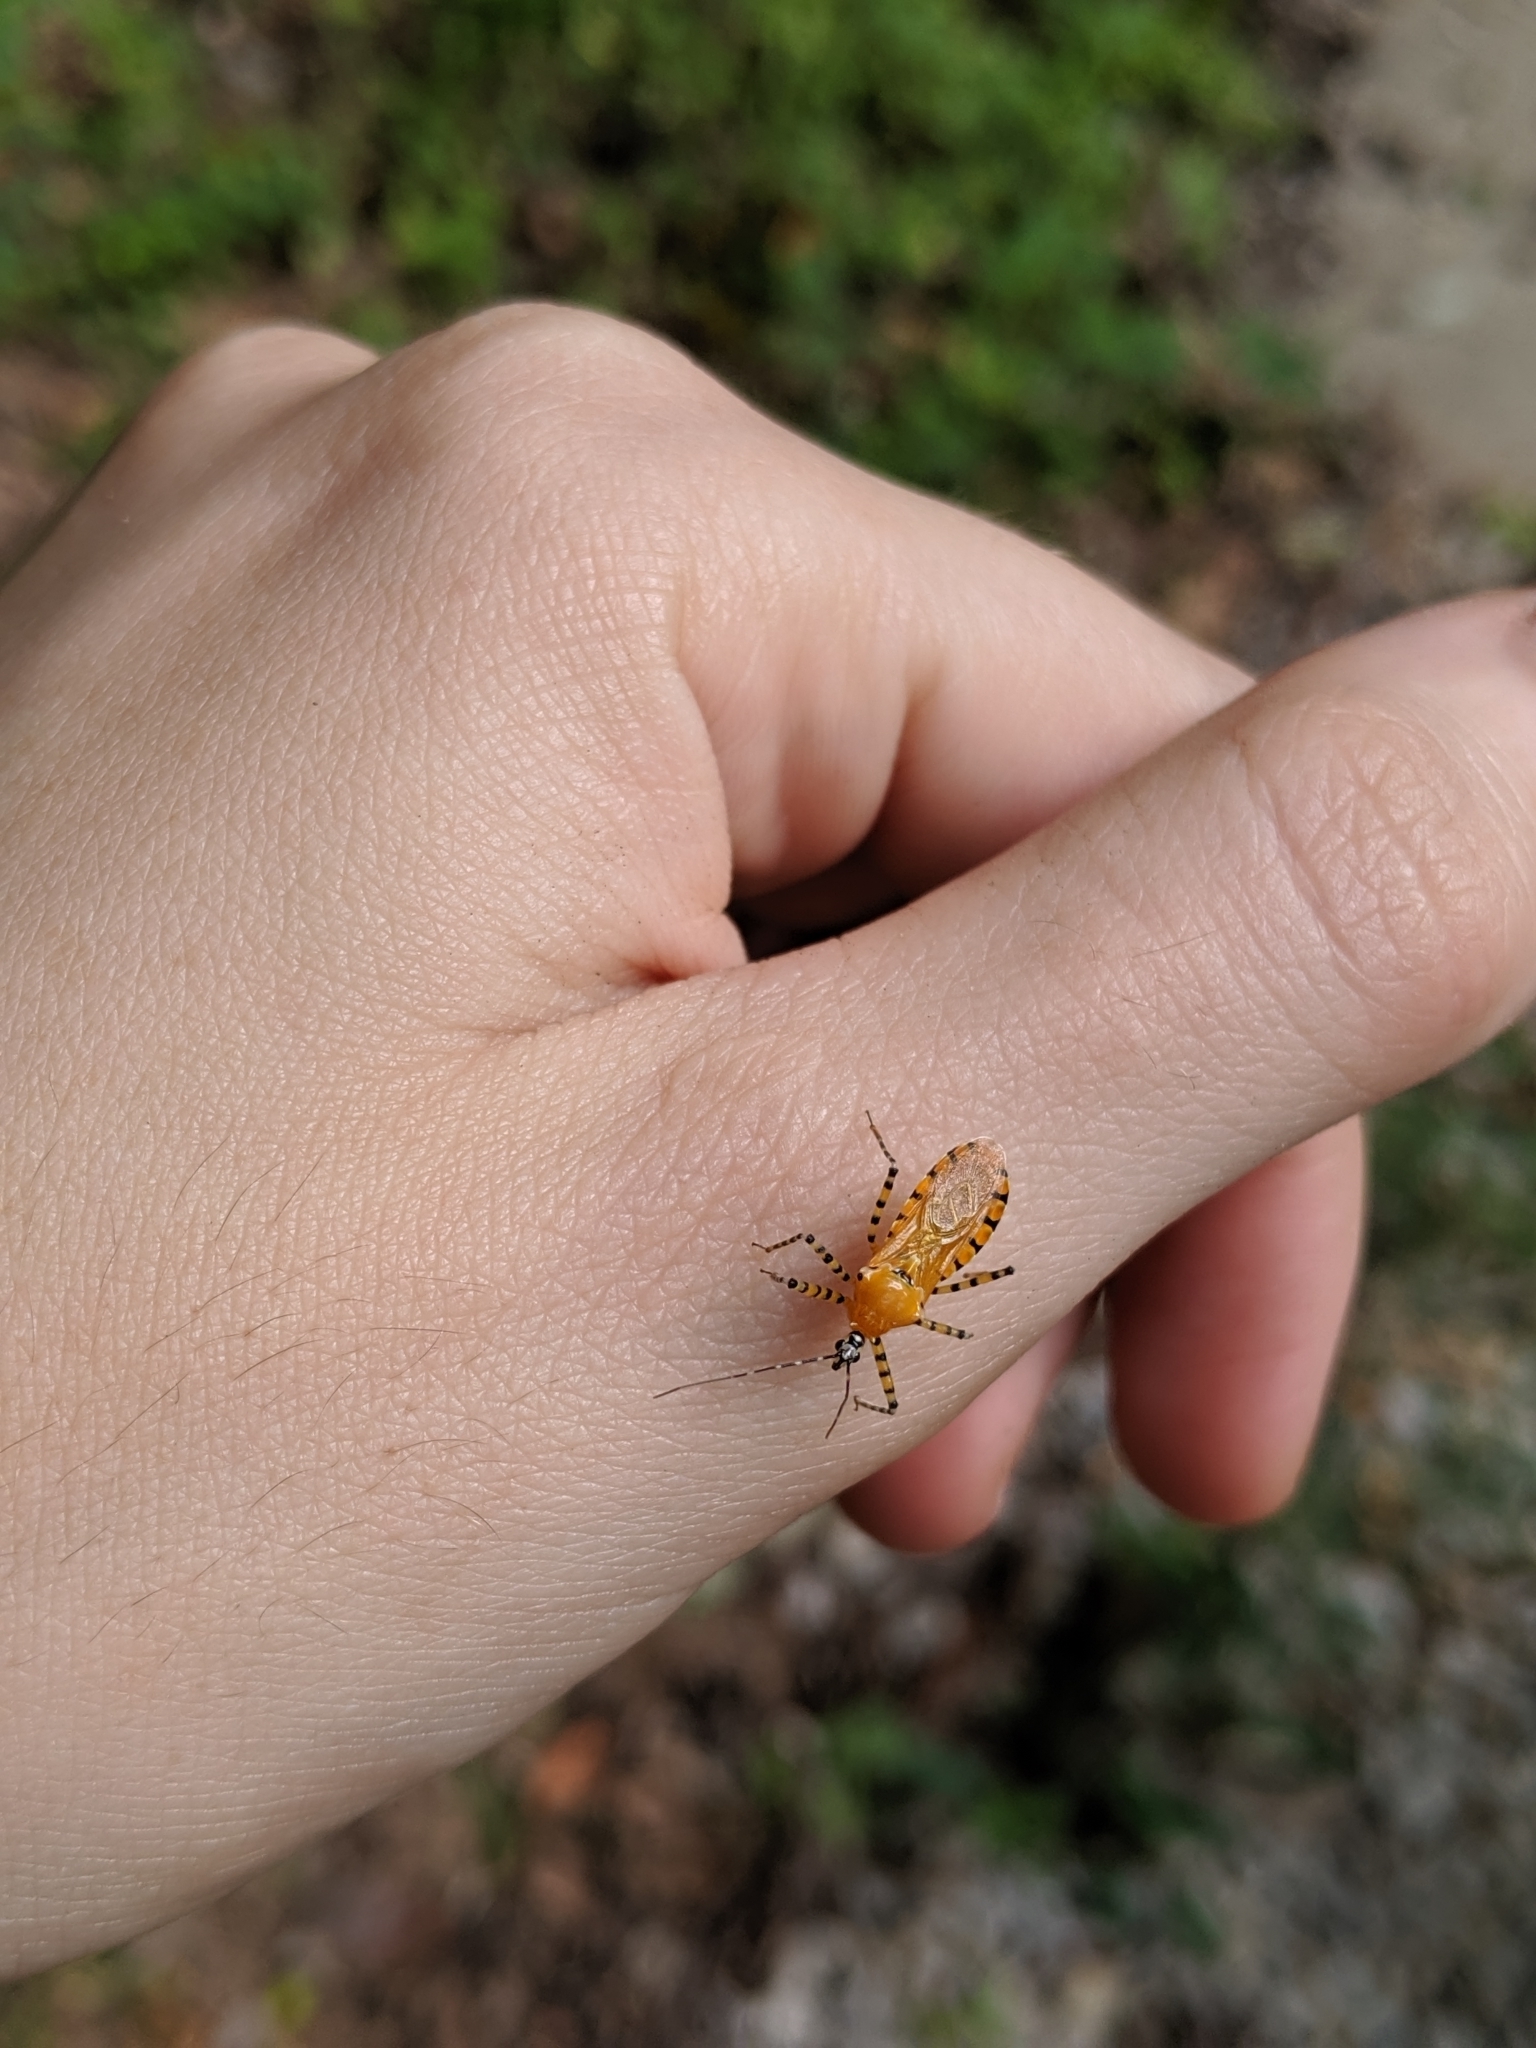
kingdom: Animalia
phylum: Arthropoda
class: Insecta
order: Hemiptera
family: Reduviidae
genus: Pselliopus
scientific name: Pselliopus barberi
